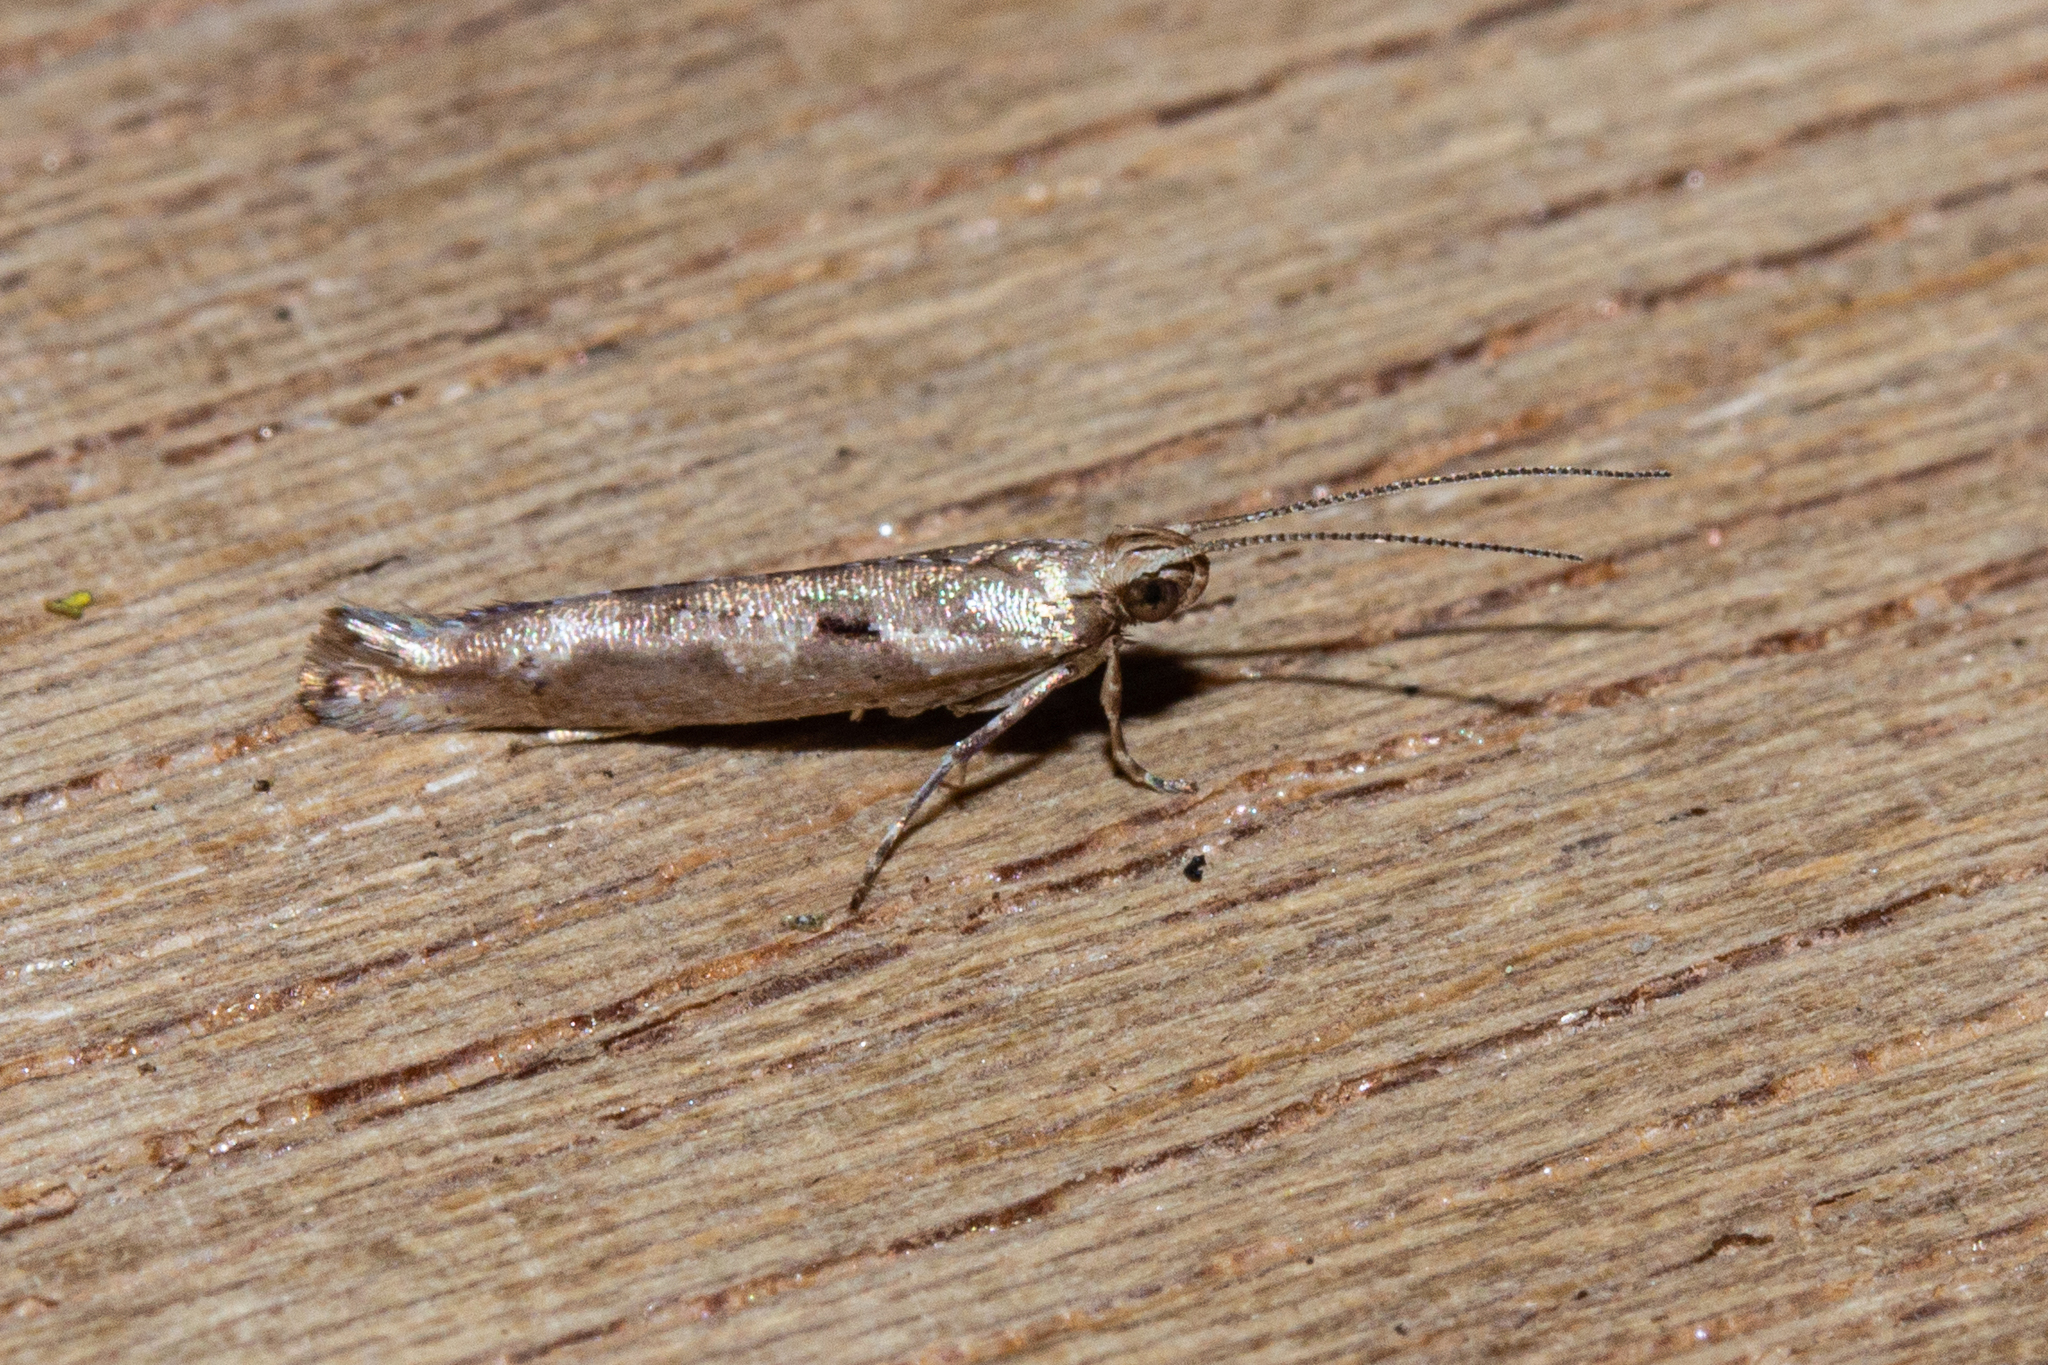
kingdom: Animalia
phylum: Arthropoda
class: Insecta
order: Lepidoptera
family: Glyphipterigidae
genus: Chrysorthenches
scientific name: Chrysorthenches porphyritis
